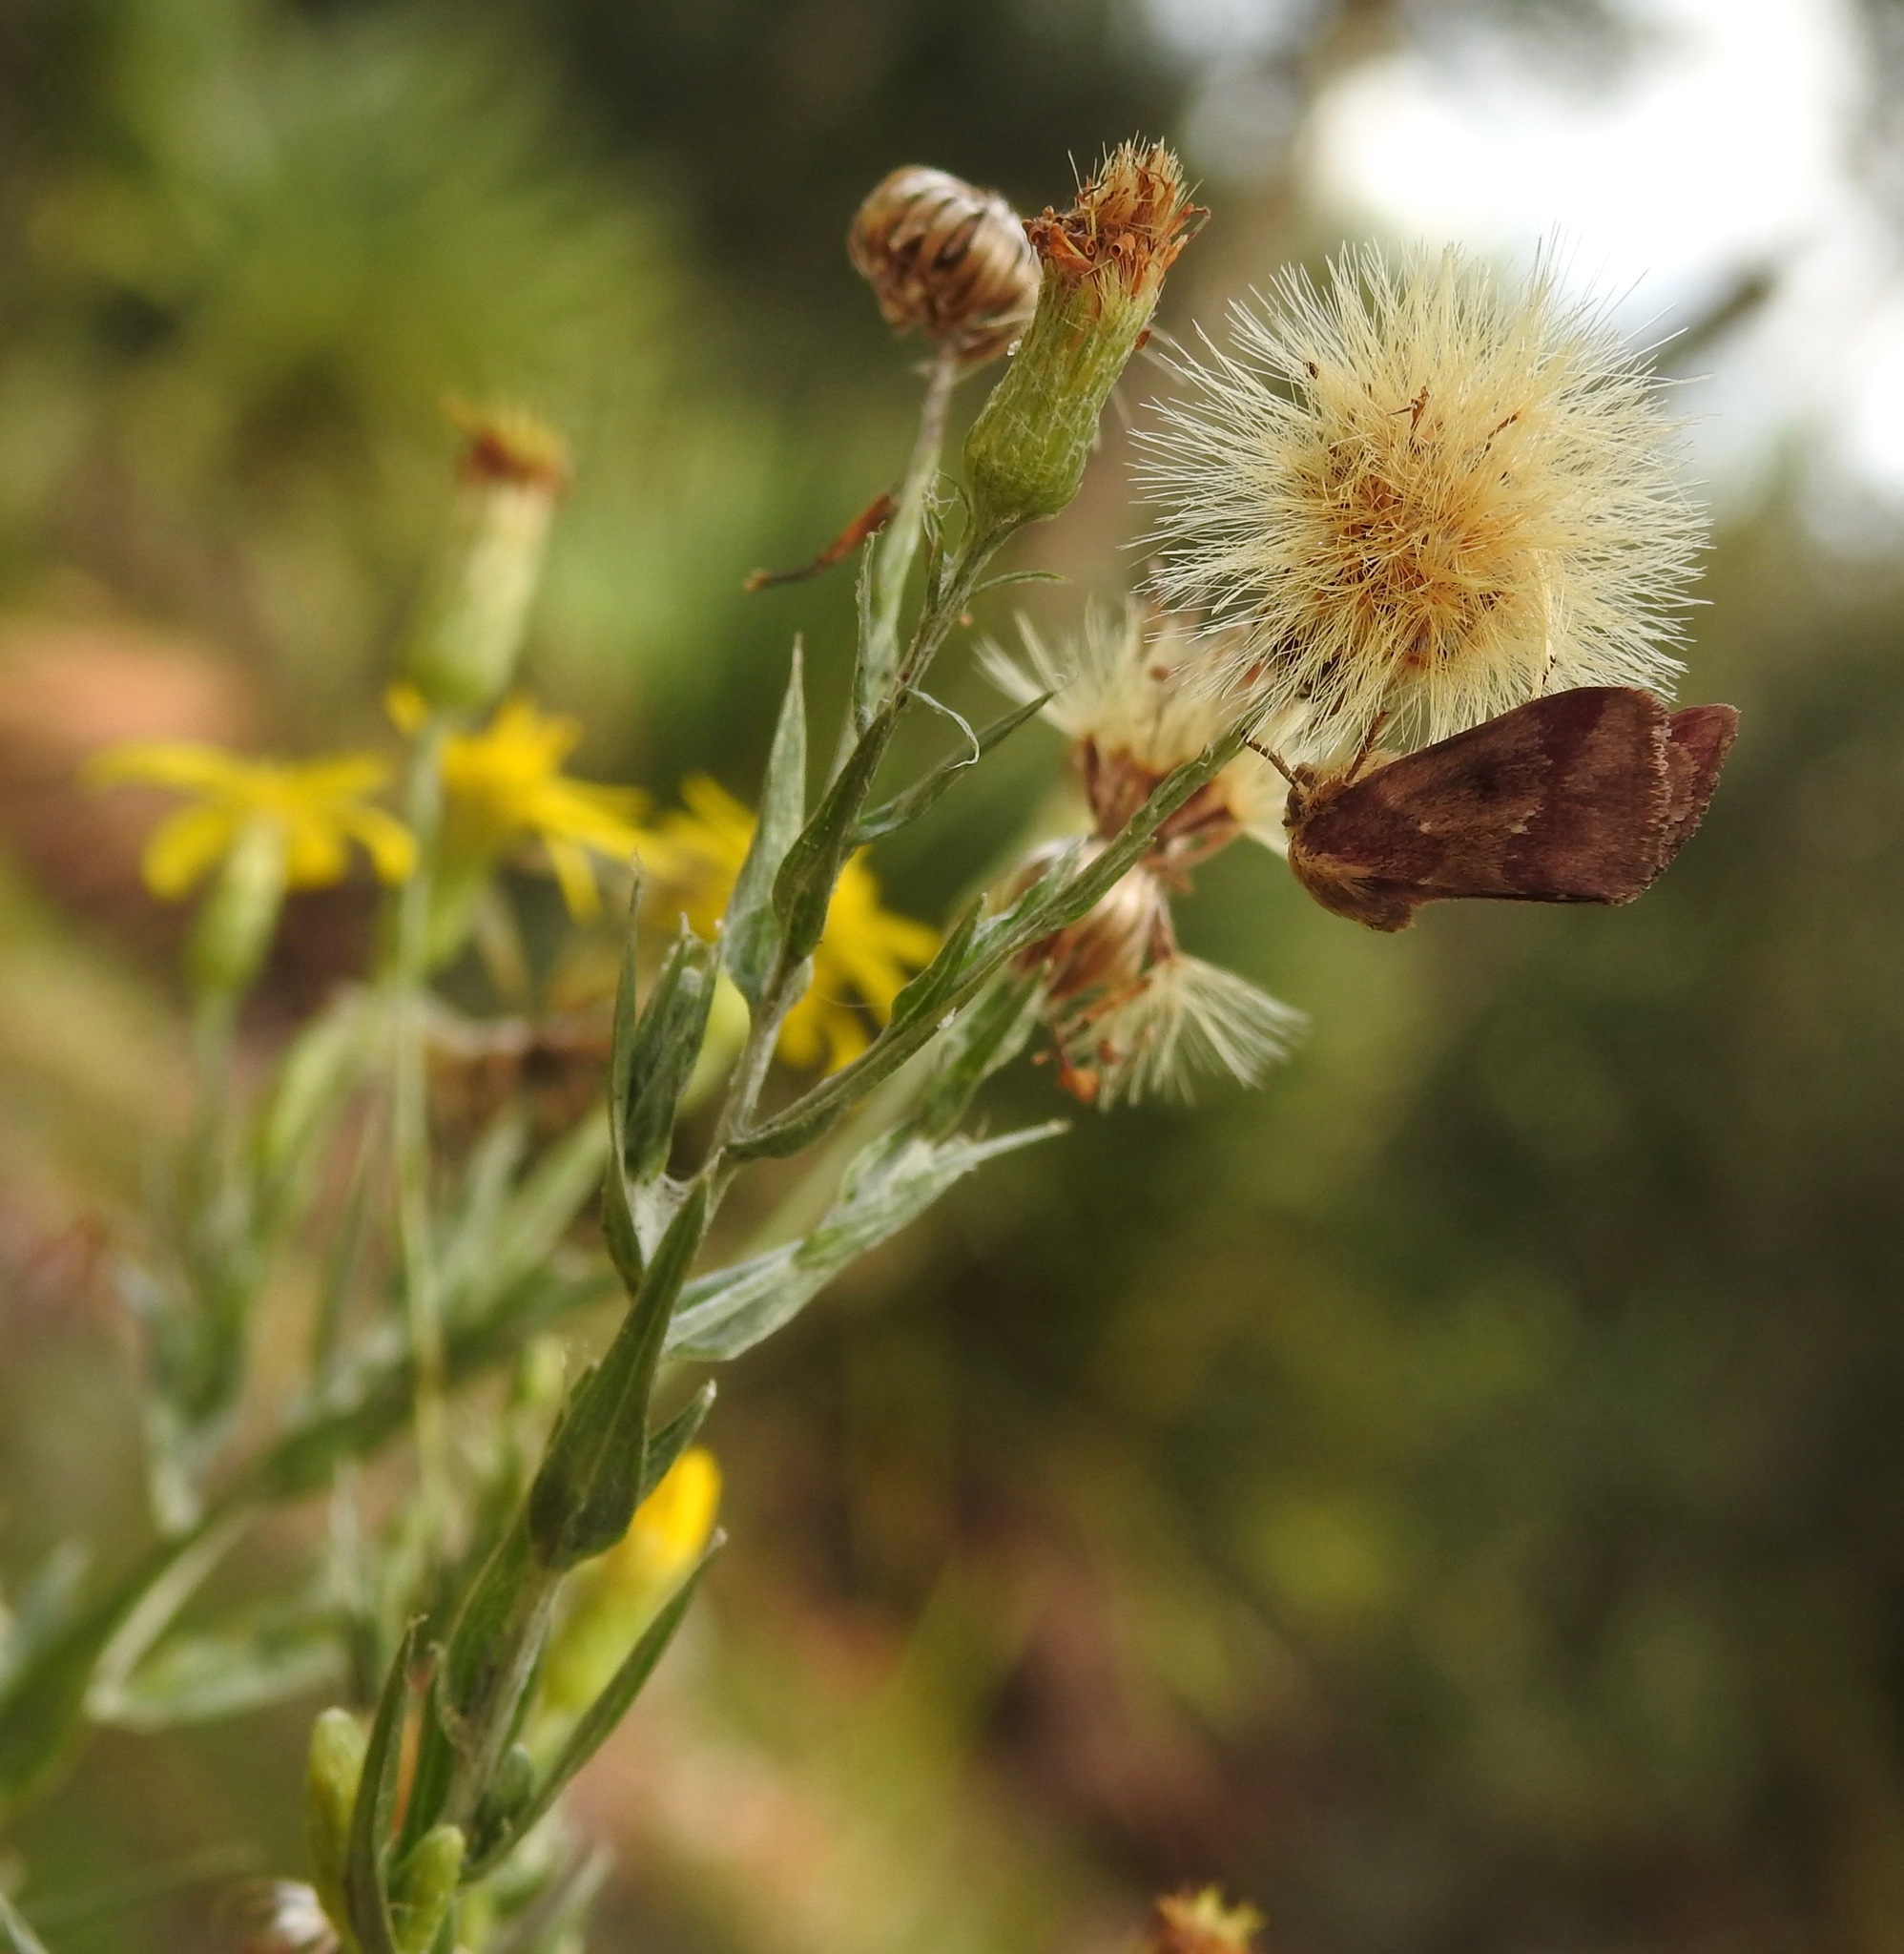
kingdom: Animalia
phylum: Arthropoda
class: Insecta
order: Lepidoptera
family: Noctuidae
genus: Schinia
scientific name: Schinia sanguinea
